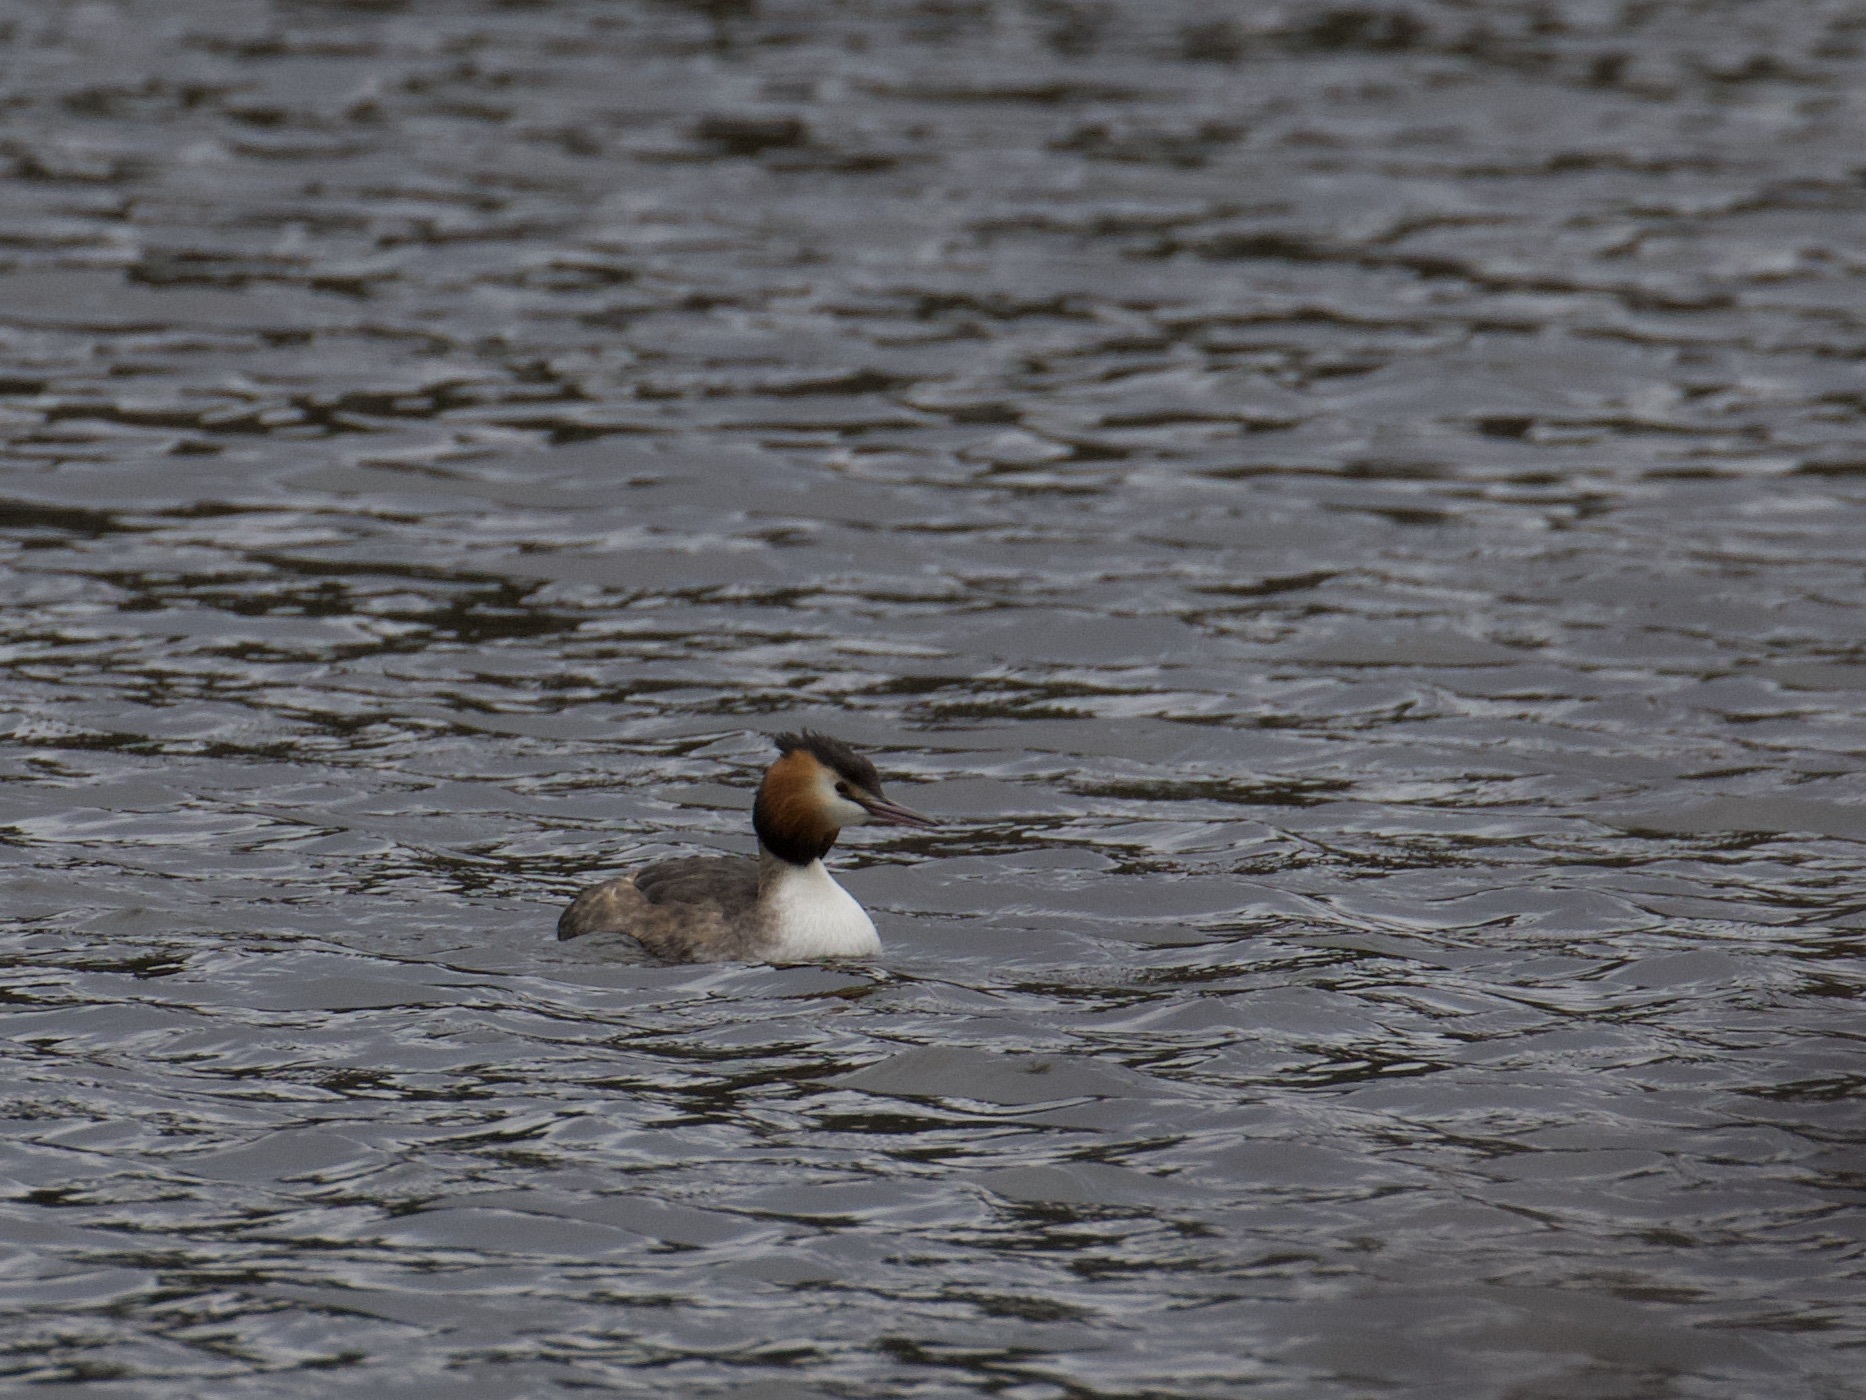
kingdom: Animalia
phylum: Chordata
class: Aves
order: Podicipediformes
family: Podicipedidae
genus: Podiceps
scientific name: Podiceps cristatus
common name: Great crested grebe
